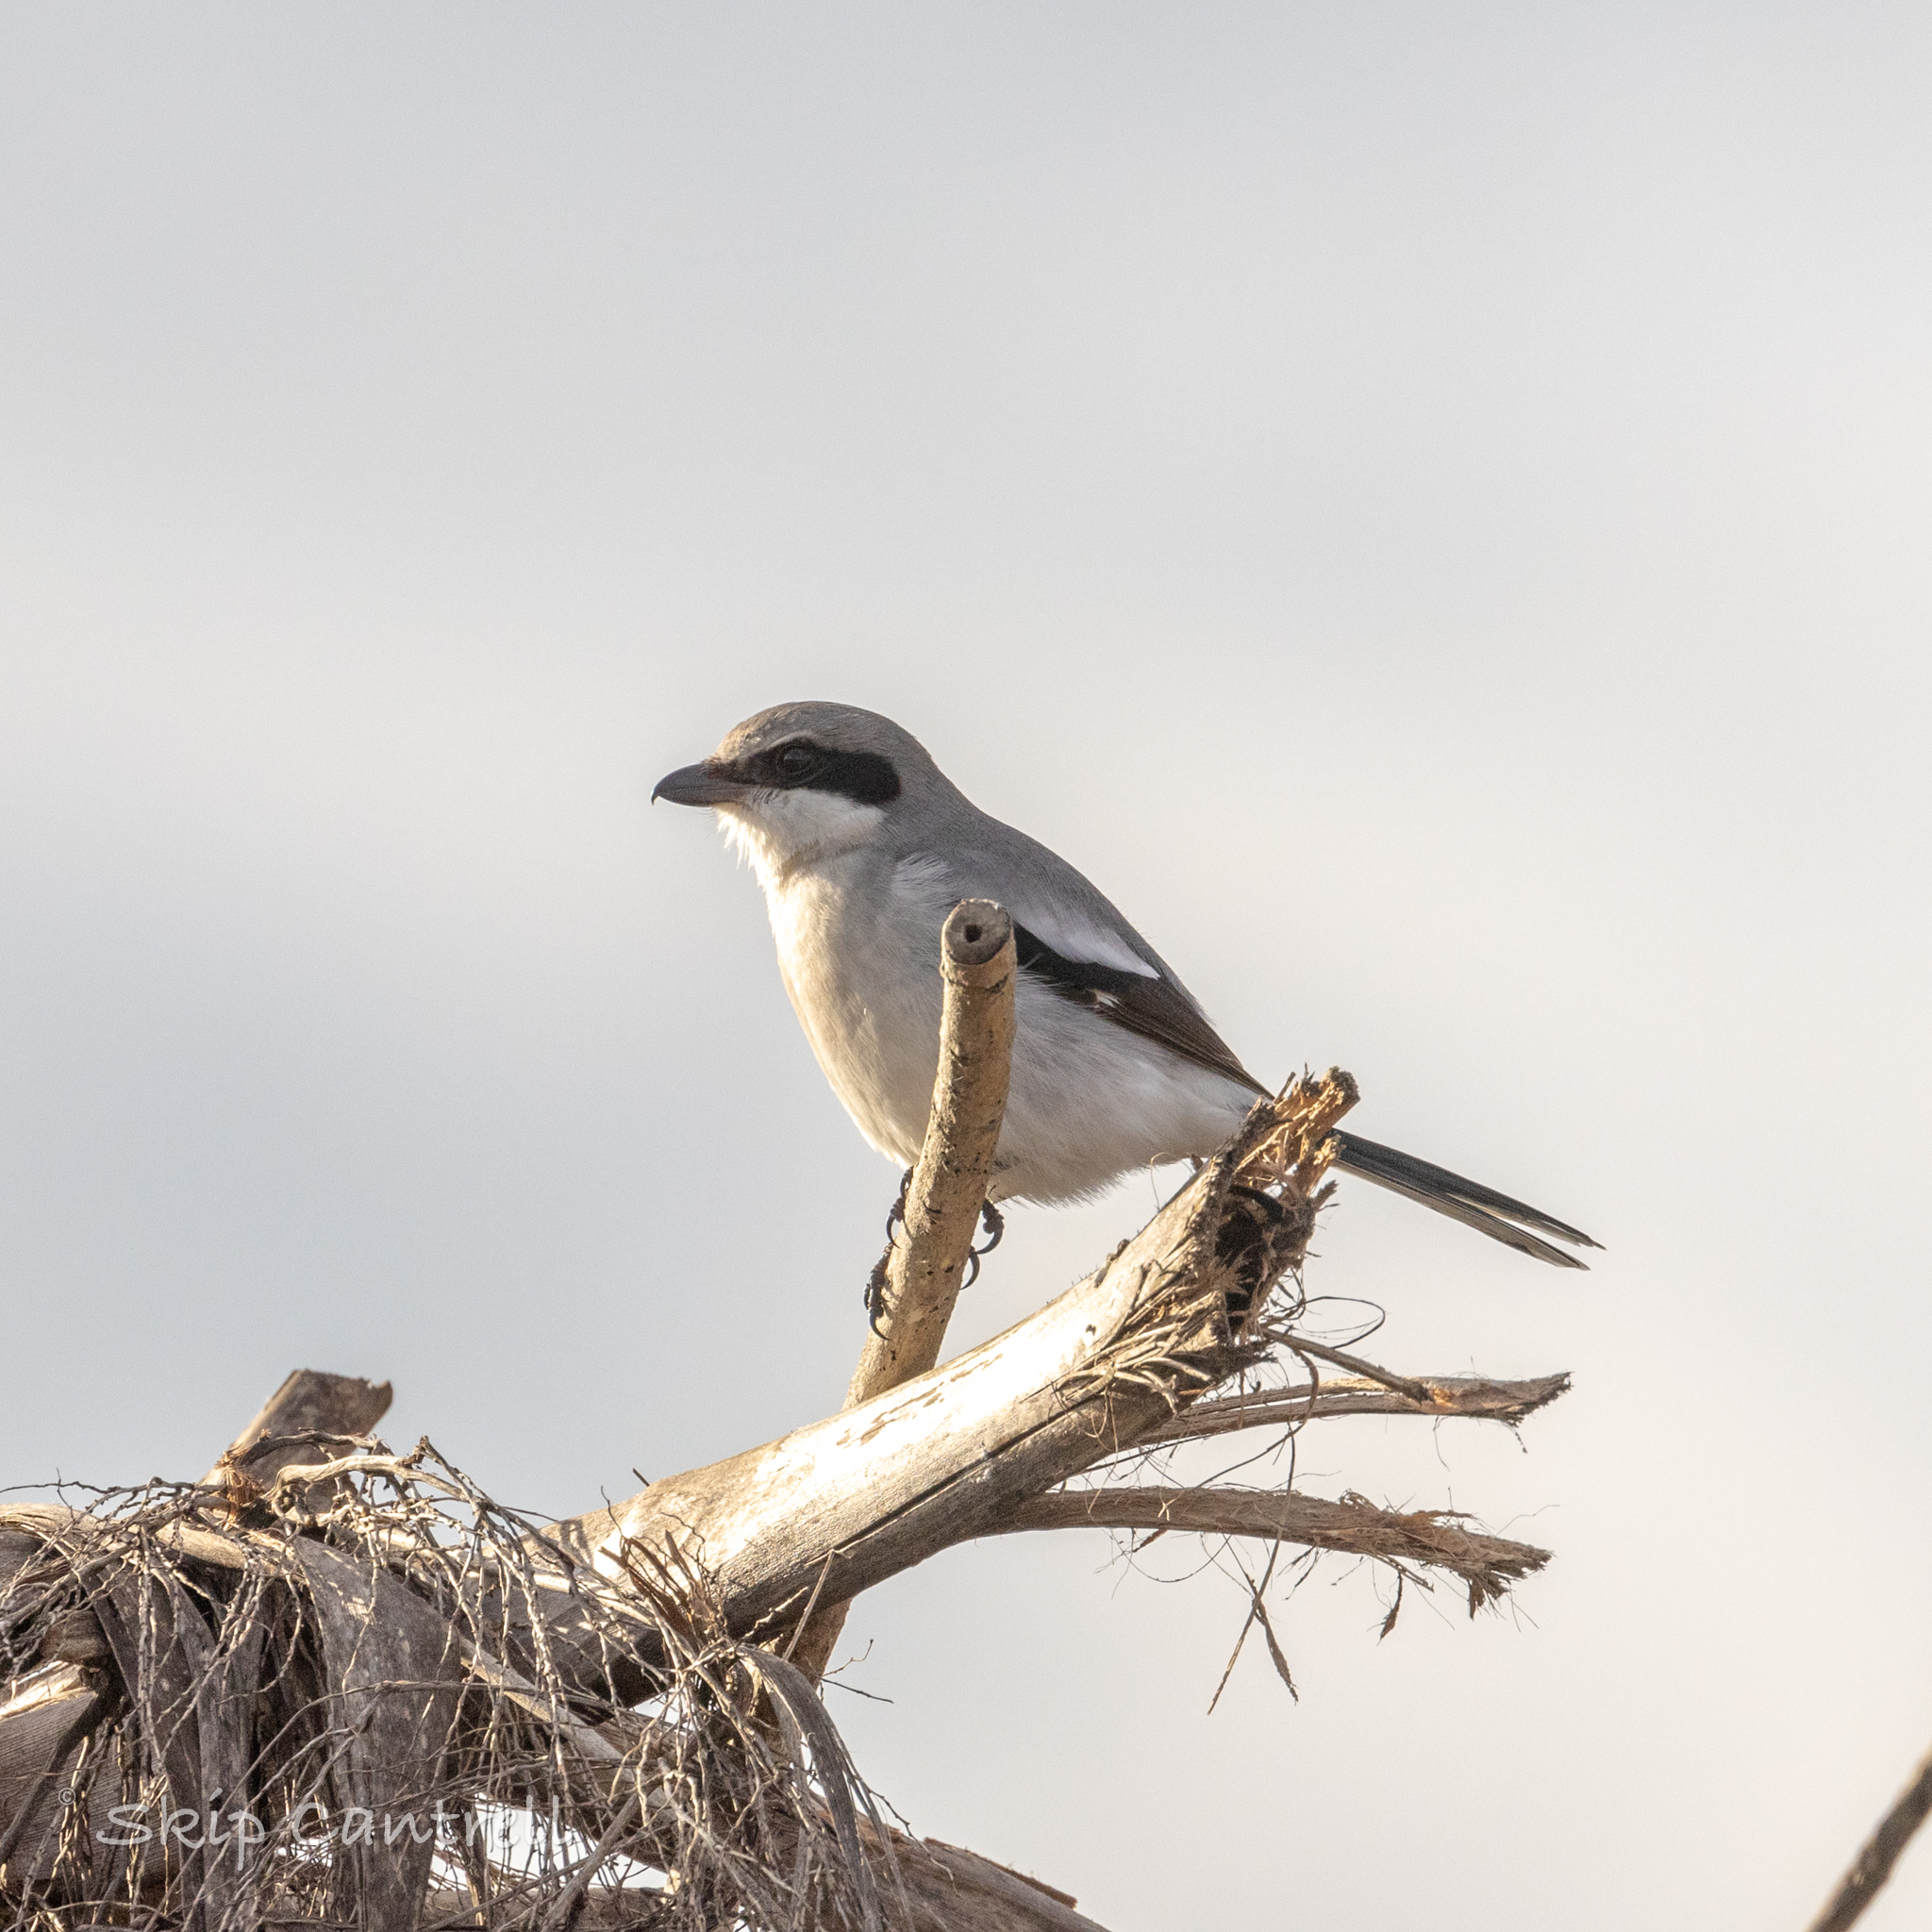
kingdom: Animalia
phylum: Chordata
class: Aves
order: Passeriformes
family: Laniidae
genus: Lanius
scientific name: Lanius ludovicianus
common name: Loggerhead shrike
